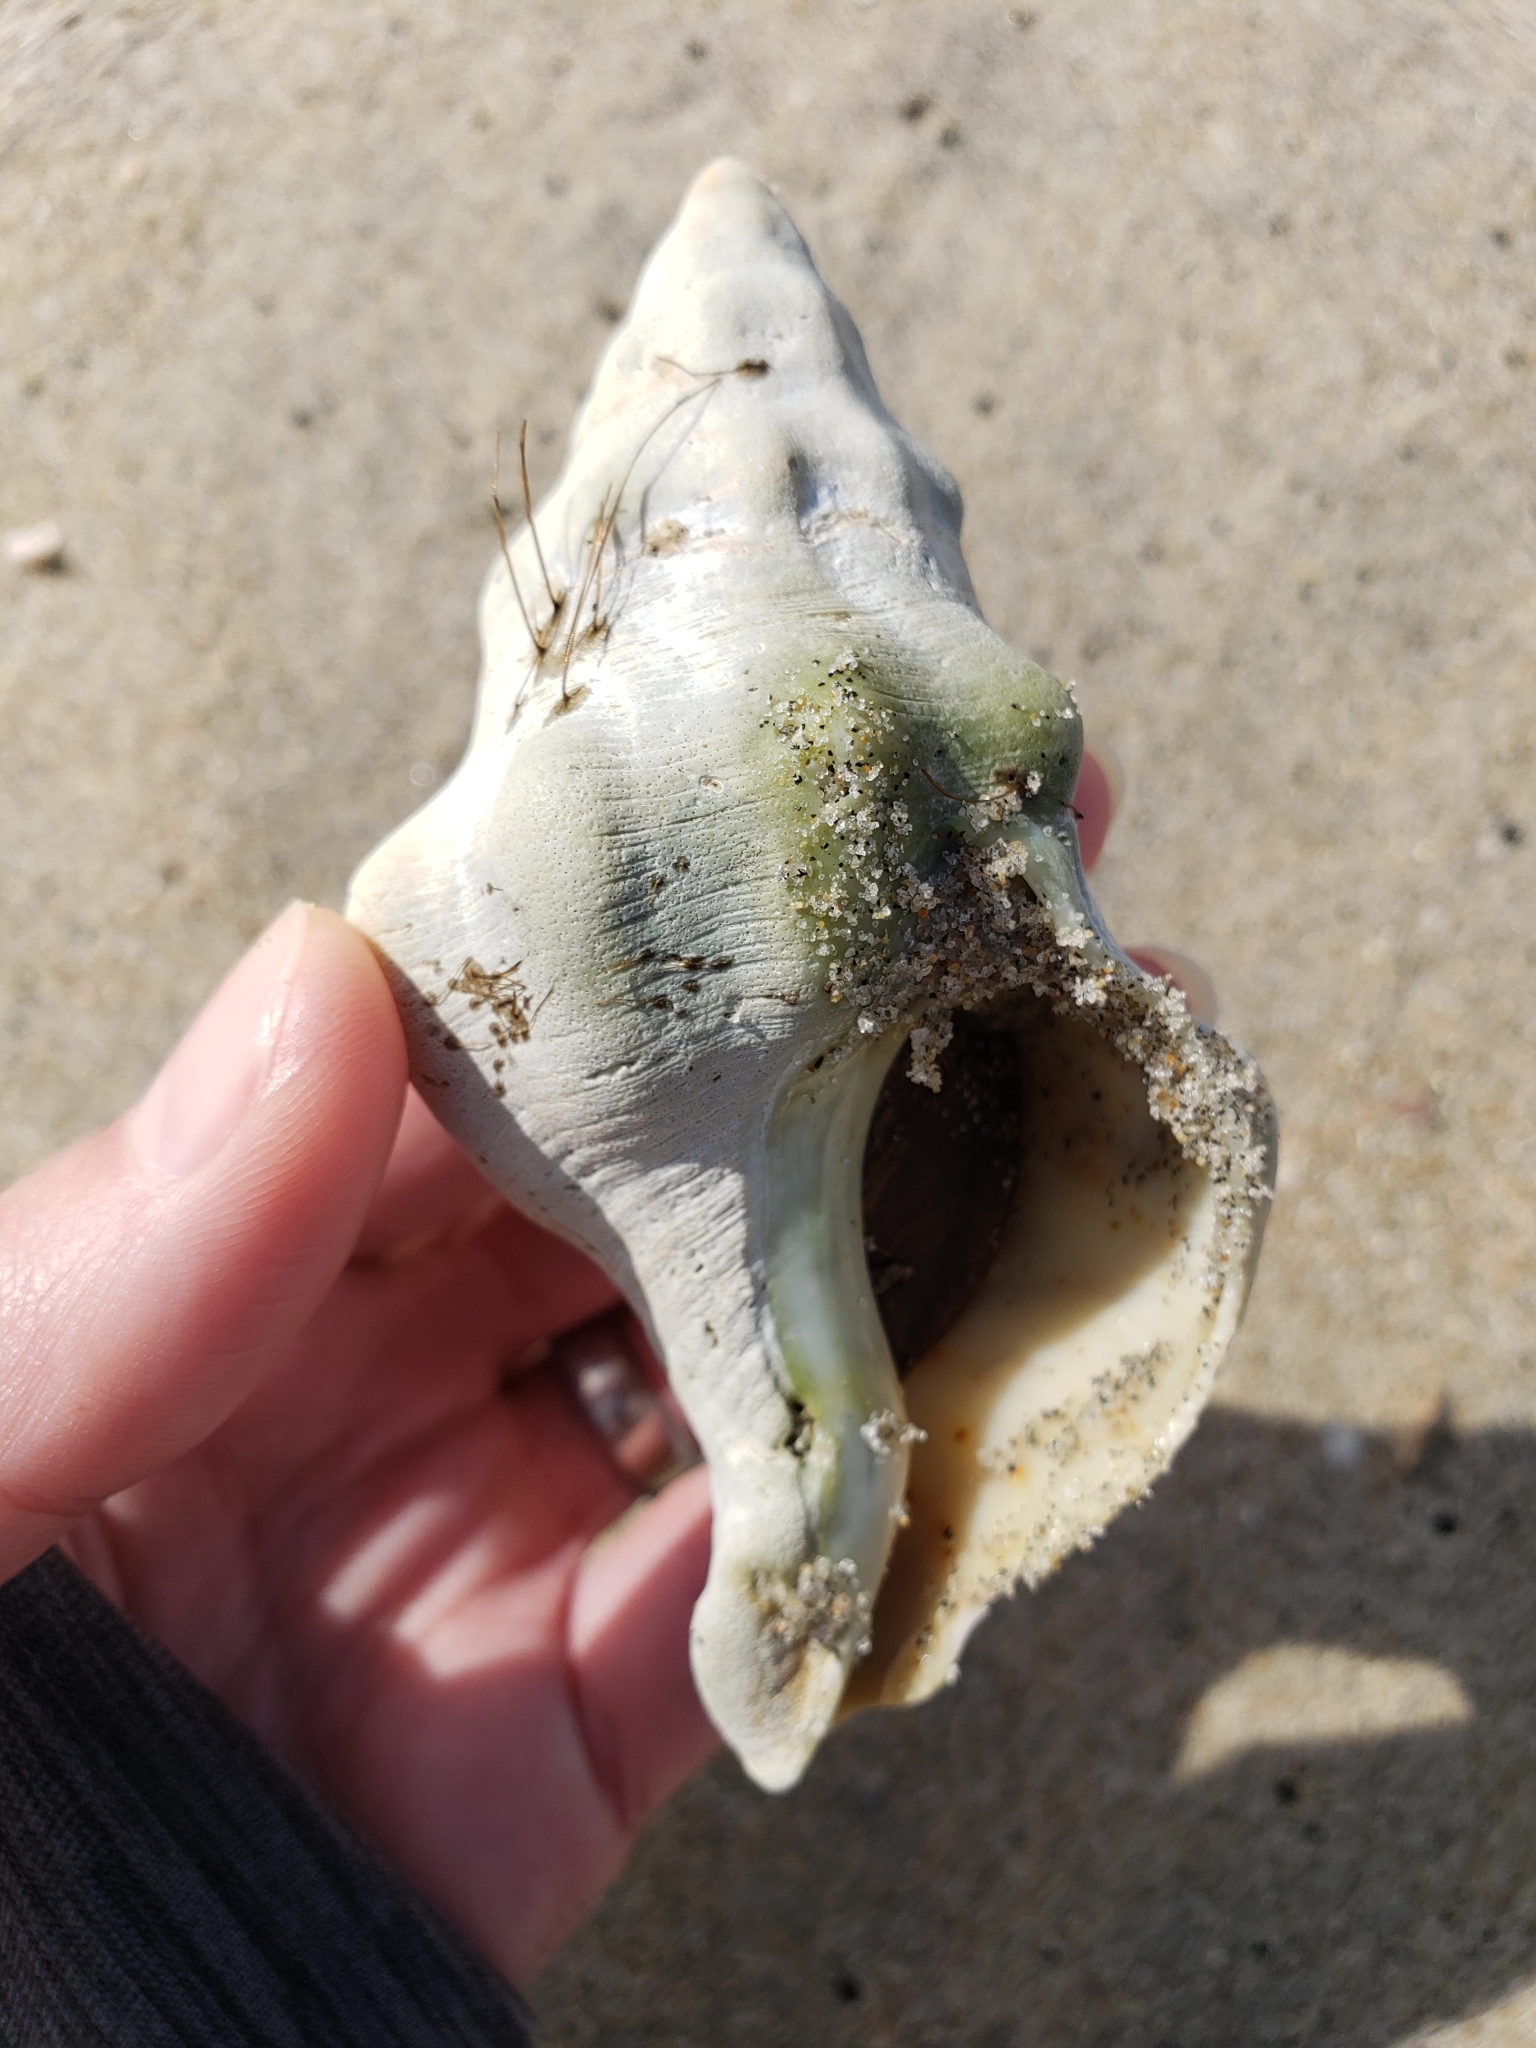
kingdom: Animalia
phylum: Mollusca
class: Gastropoda
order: Neogastropoda
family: Austrosiphonidae
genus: Kelletia
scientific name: Kelletia kelletii
